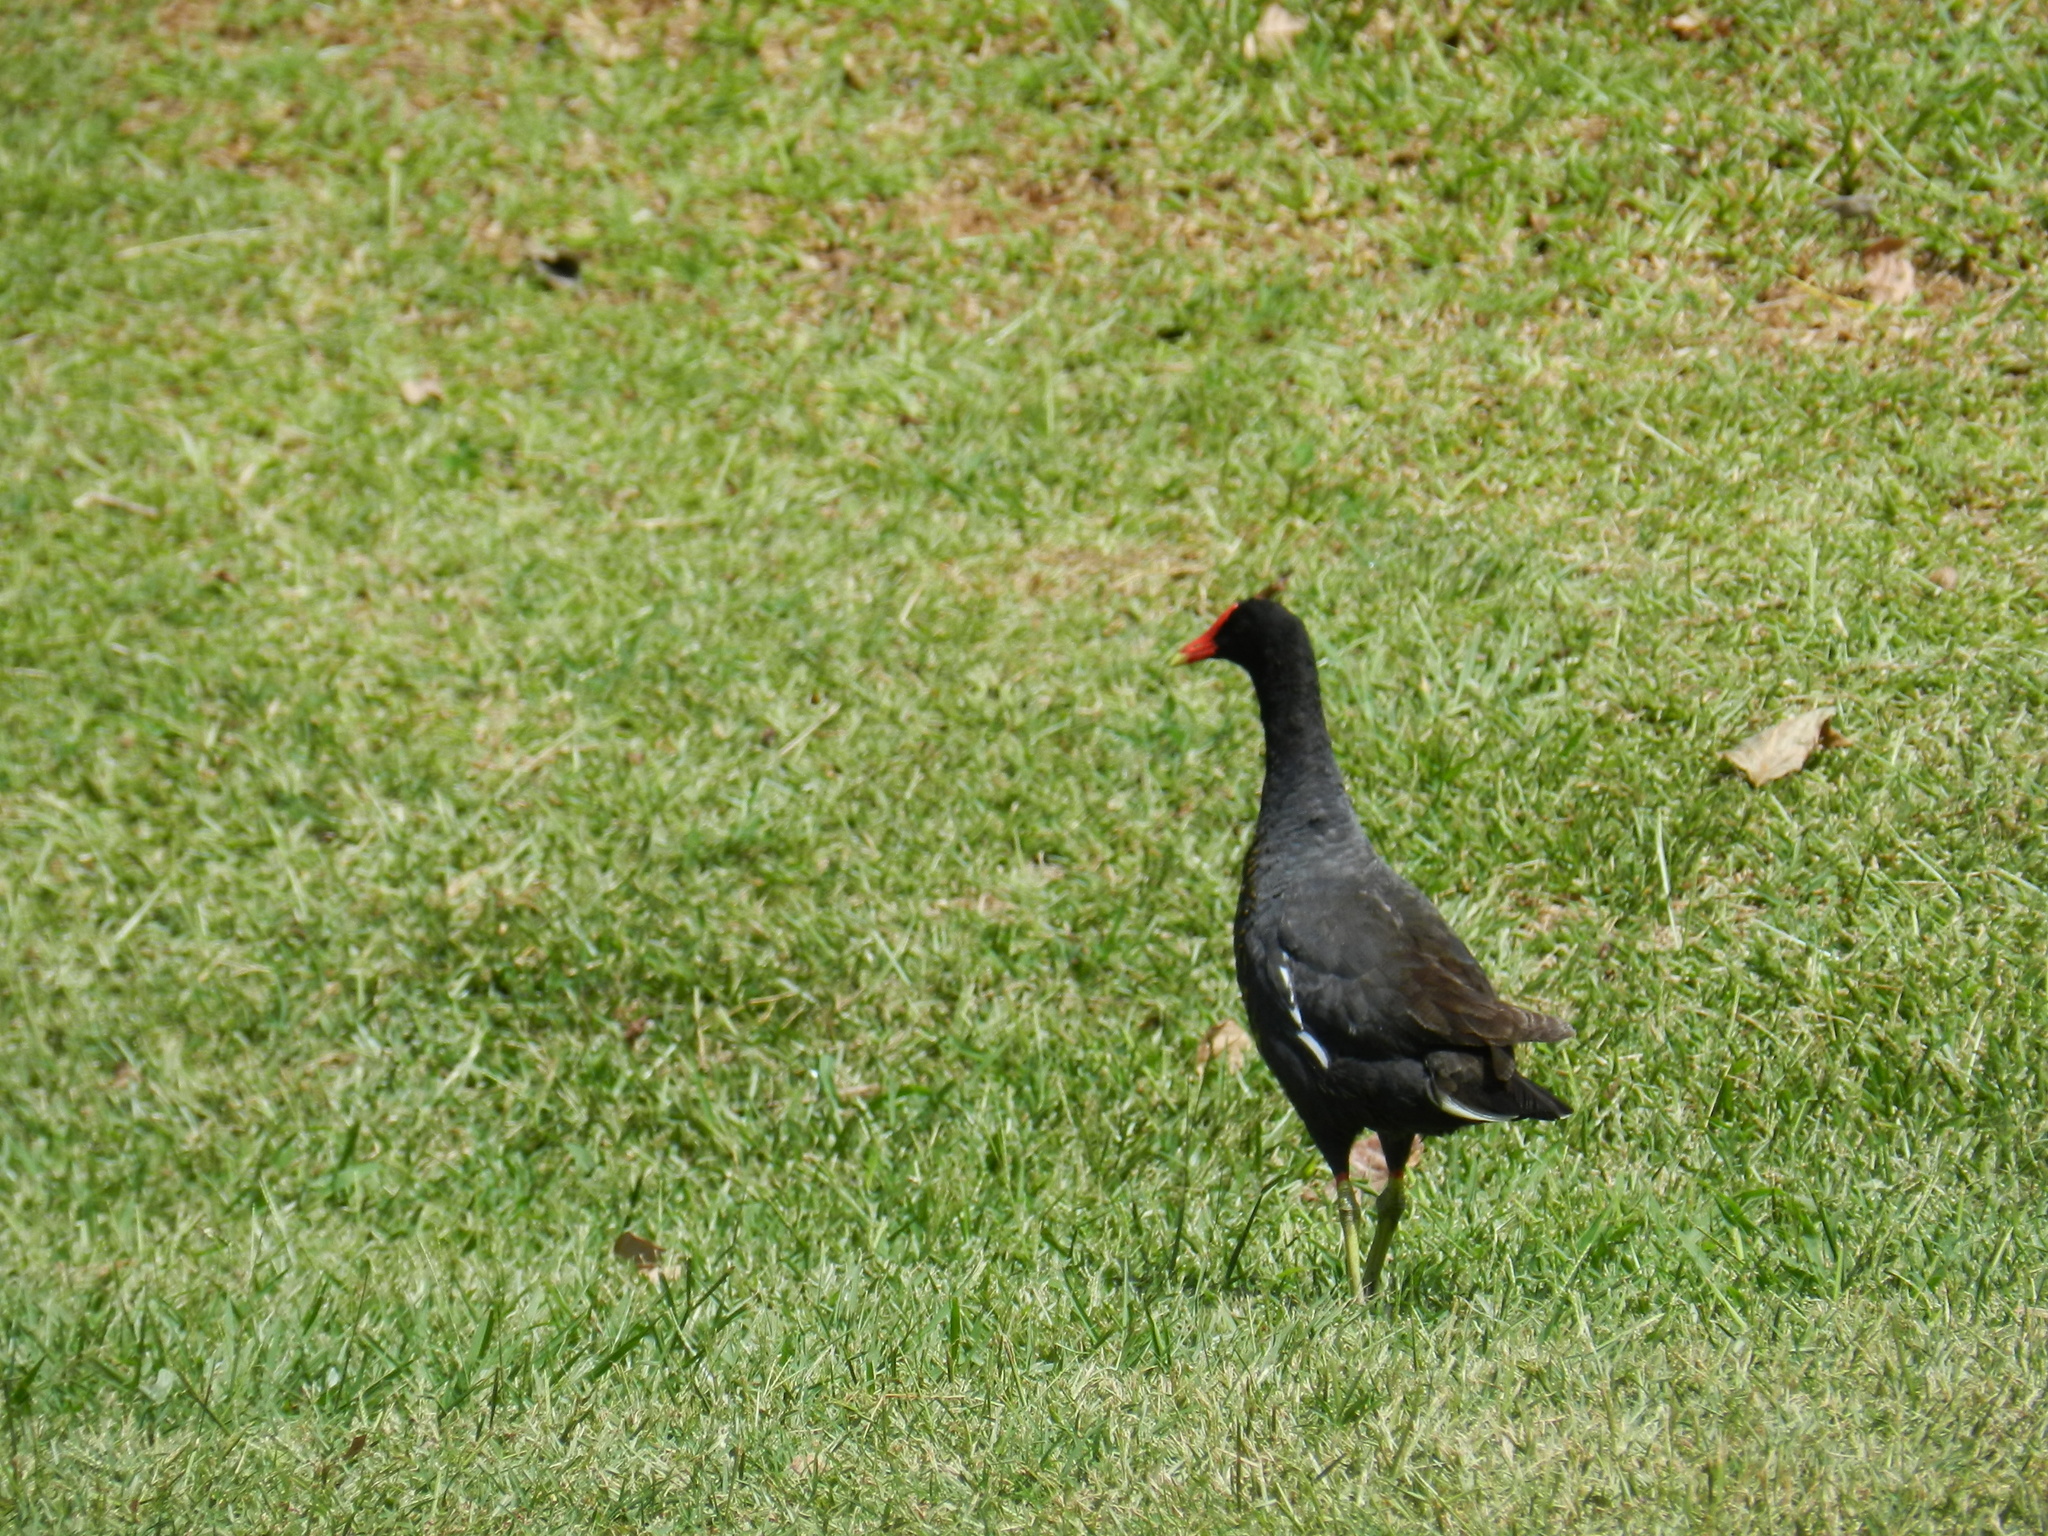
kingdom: Animalia
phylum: Chordata
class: Aves
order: Gruiformes
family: Rallidae
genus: Gallinula
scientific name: Gallinula chloropus
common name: Common moorhen
